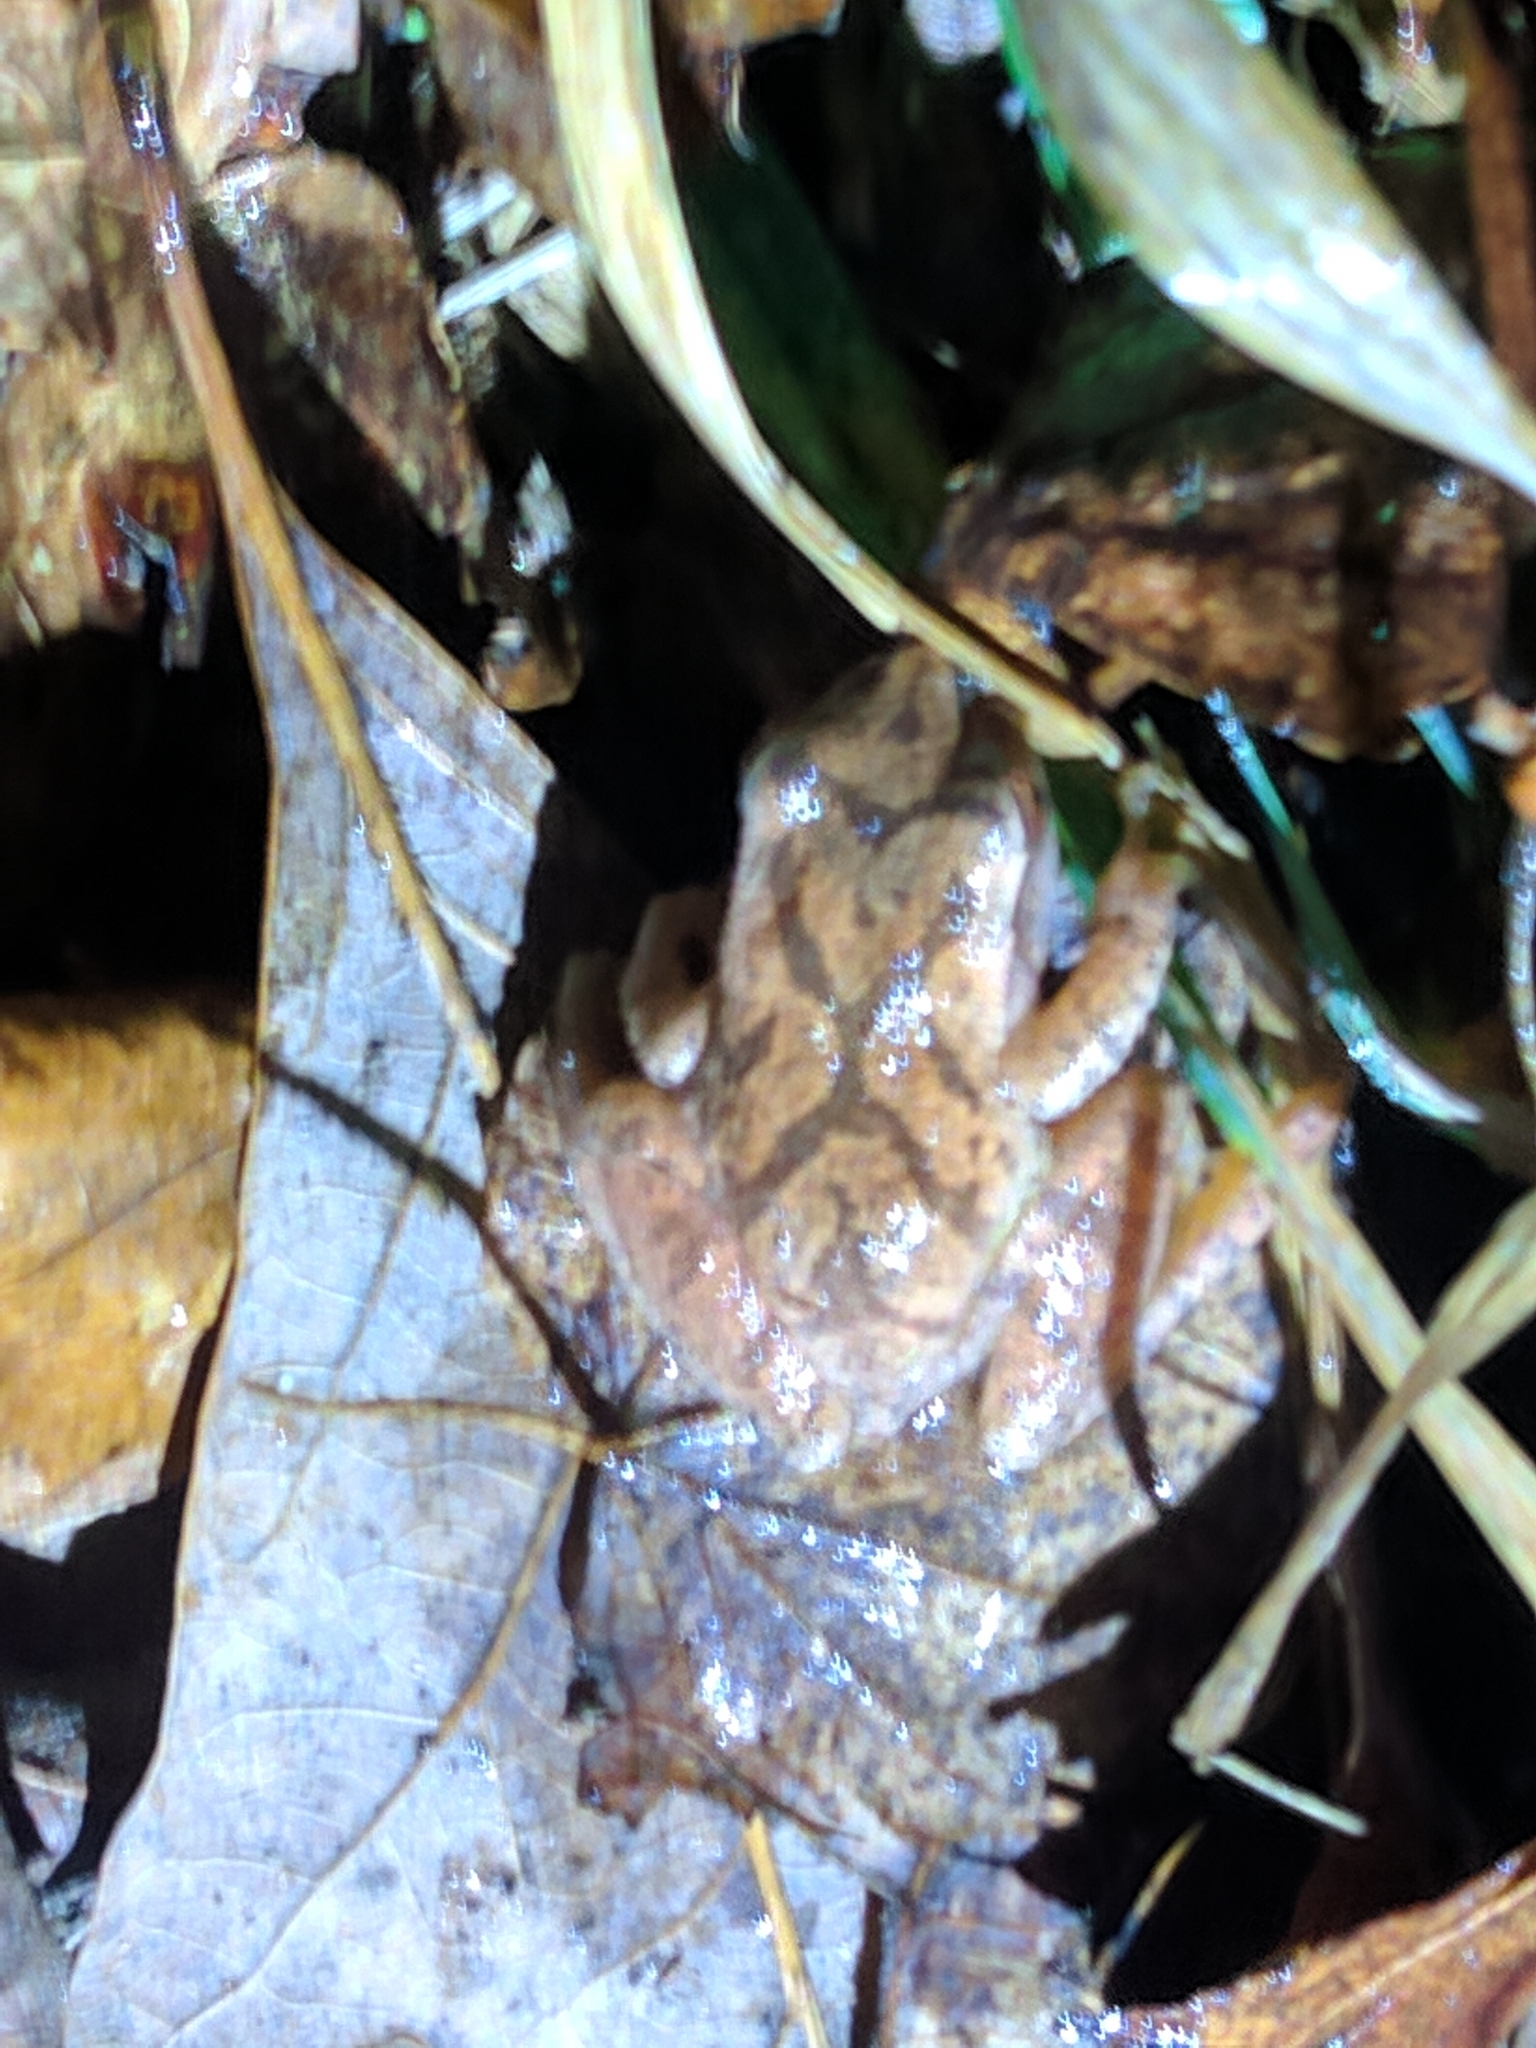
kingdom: Animalia
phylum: Chordata
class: Amphibia
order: Anura
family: Hylidae
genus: Pseudacris
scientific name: Pseudacris crucifer
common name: Spring peeper
